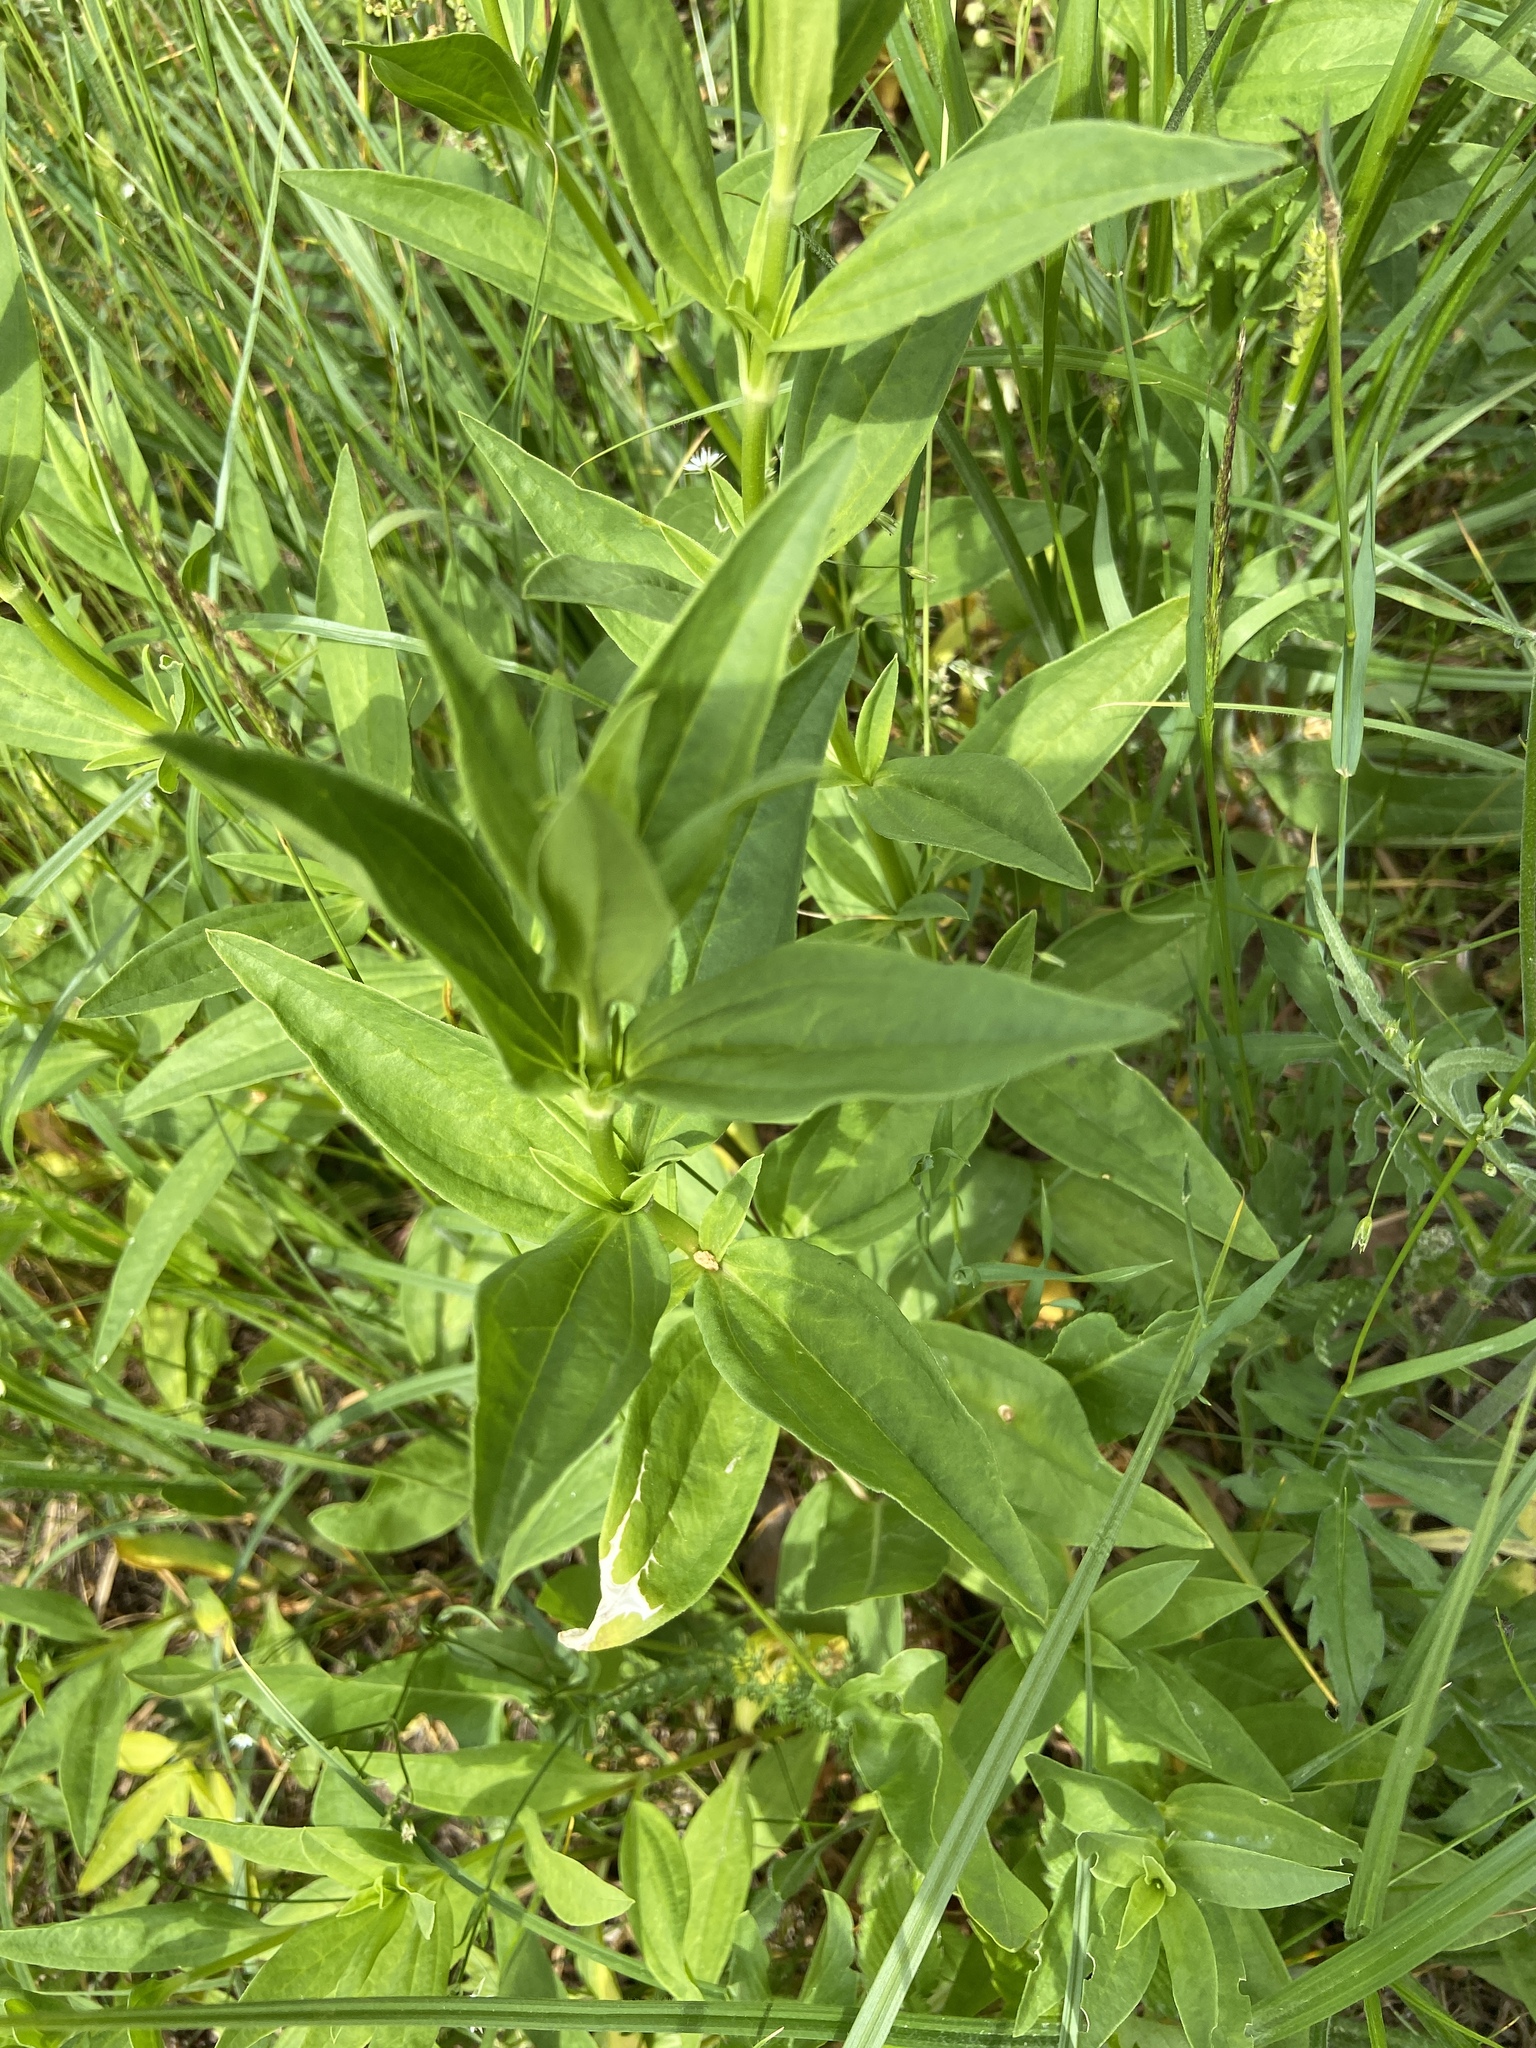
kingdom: Plantae
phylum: Tracheophyta
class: Magnoliopsida
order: Caryophyllales
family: Caryophyllaceae
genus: Saponaria
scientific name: Saponaria officinalis
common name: Soapwort
